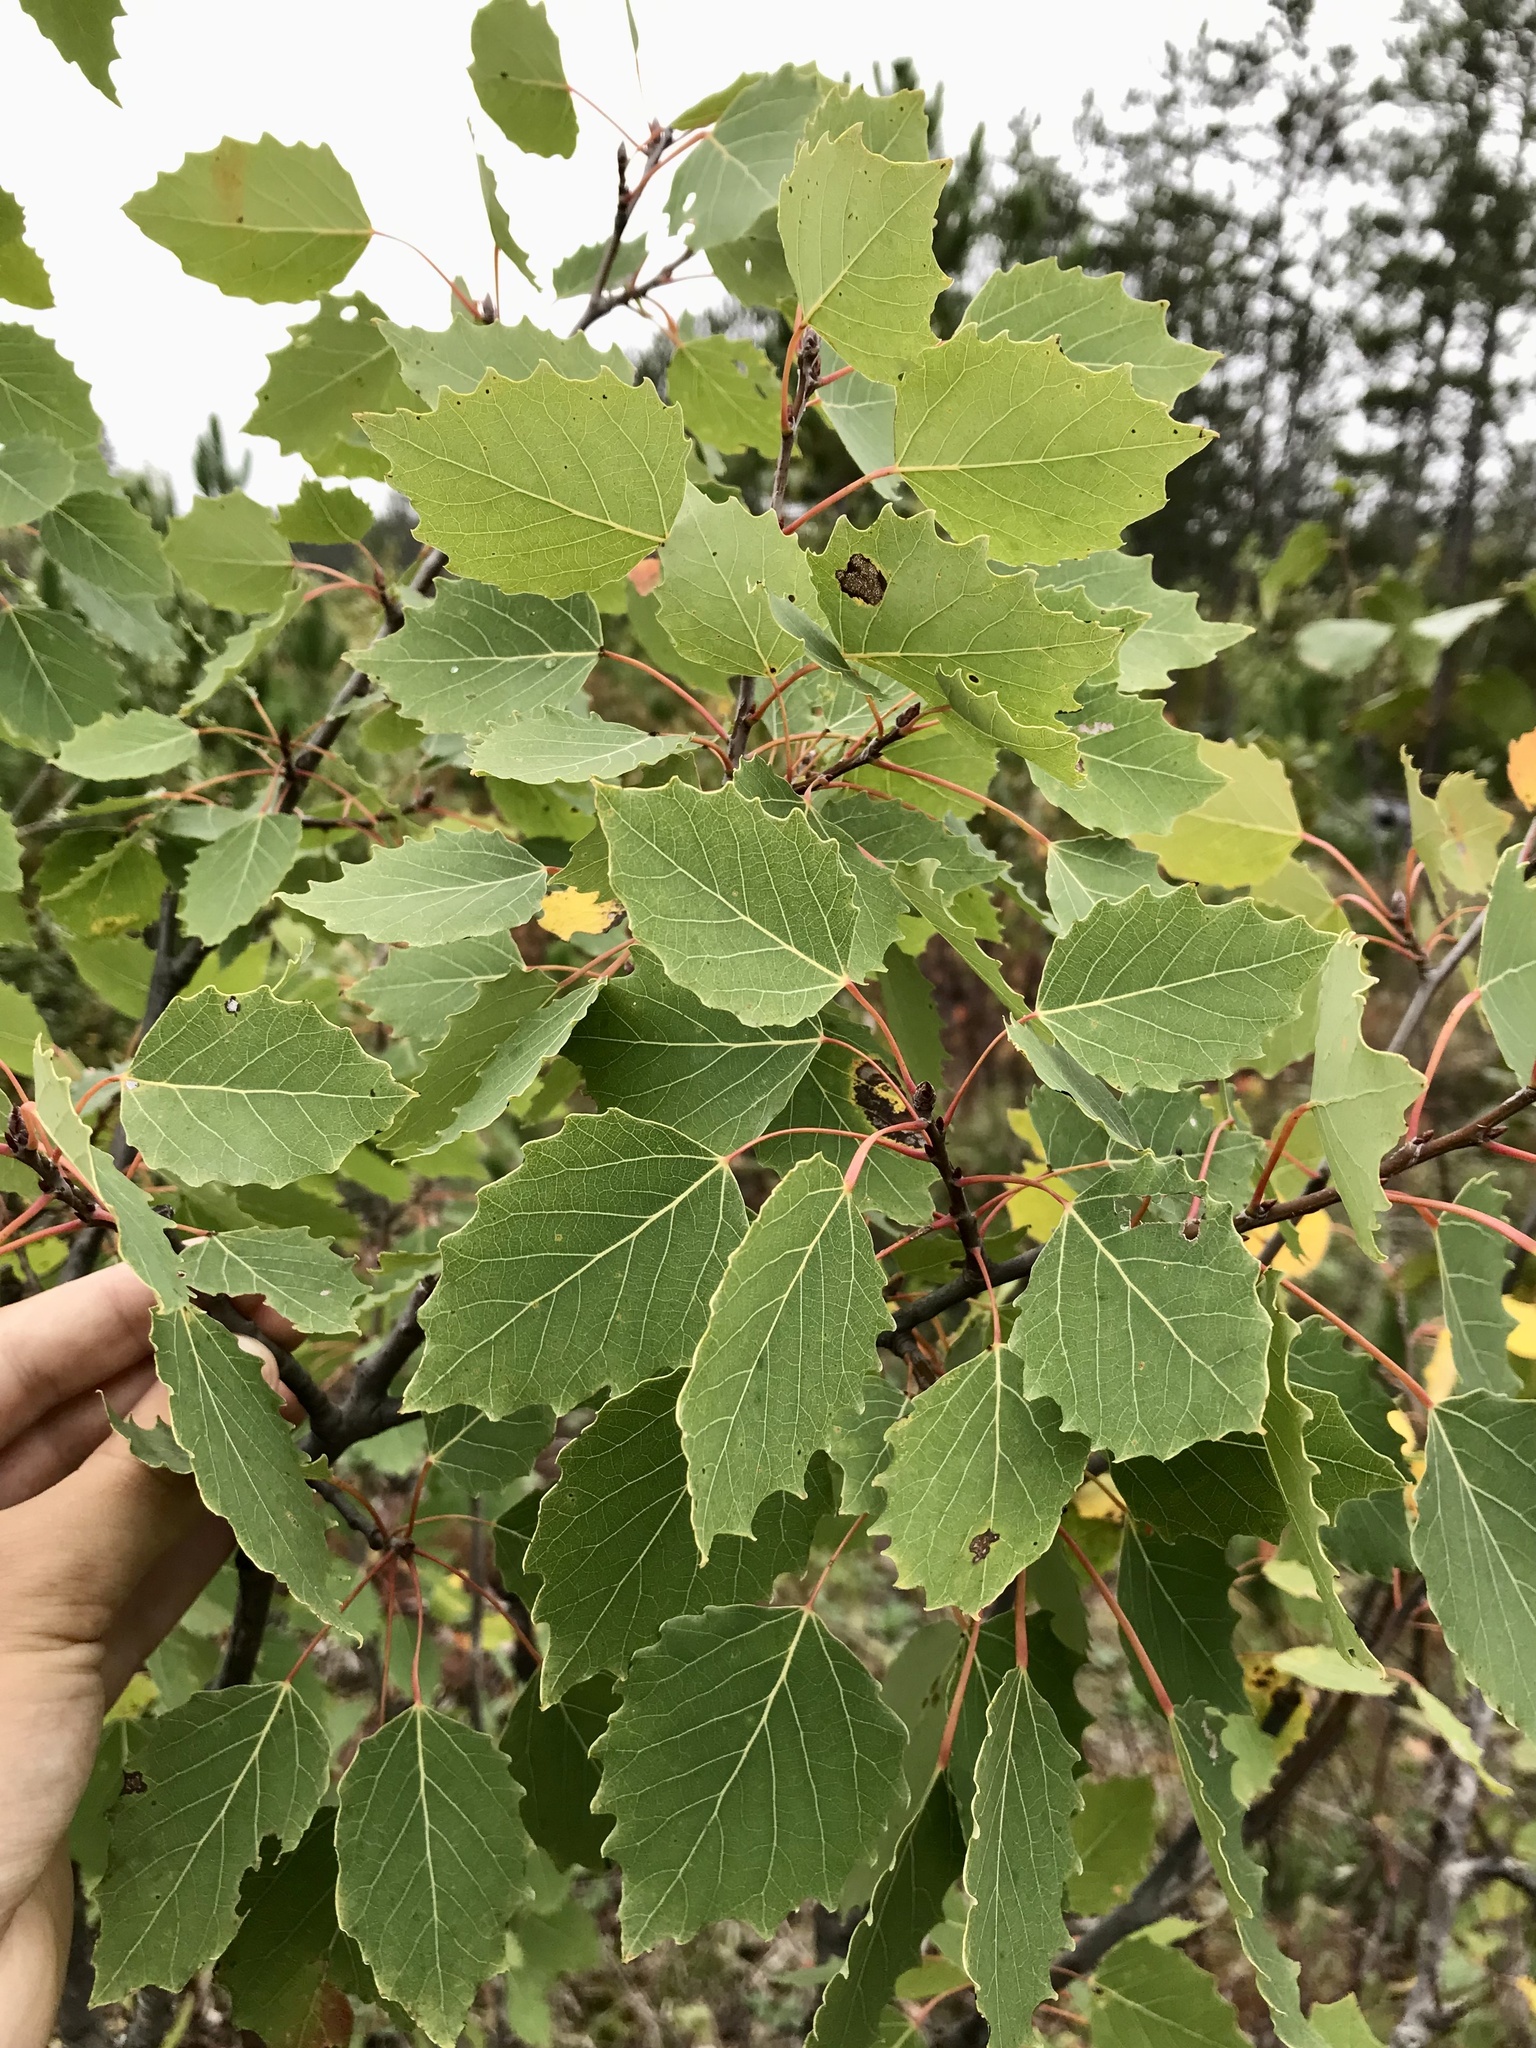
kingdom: Plantae
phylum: Tracheophyta
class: Magnoliopsida
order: Malpighiales
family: Salicaceae
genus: Populus
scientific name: Populus grandidentata
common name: Bigtooth aspen
